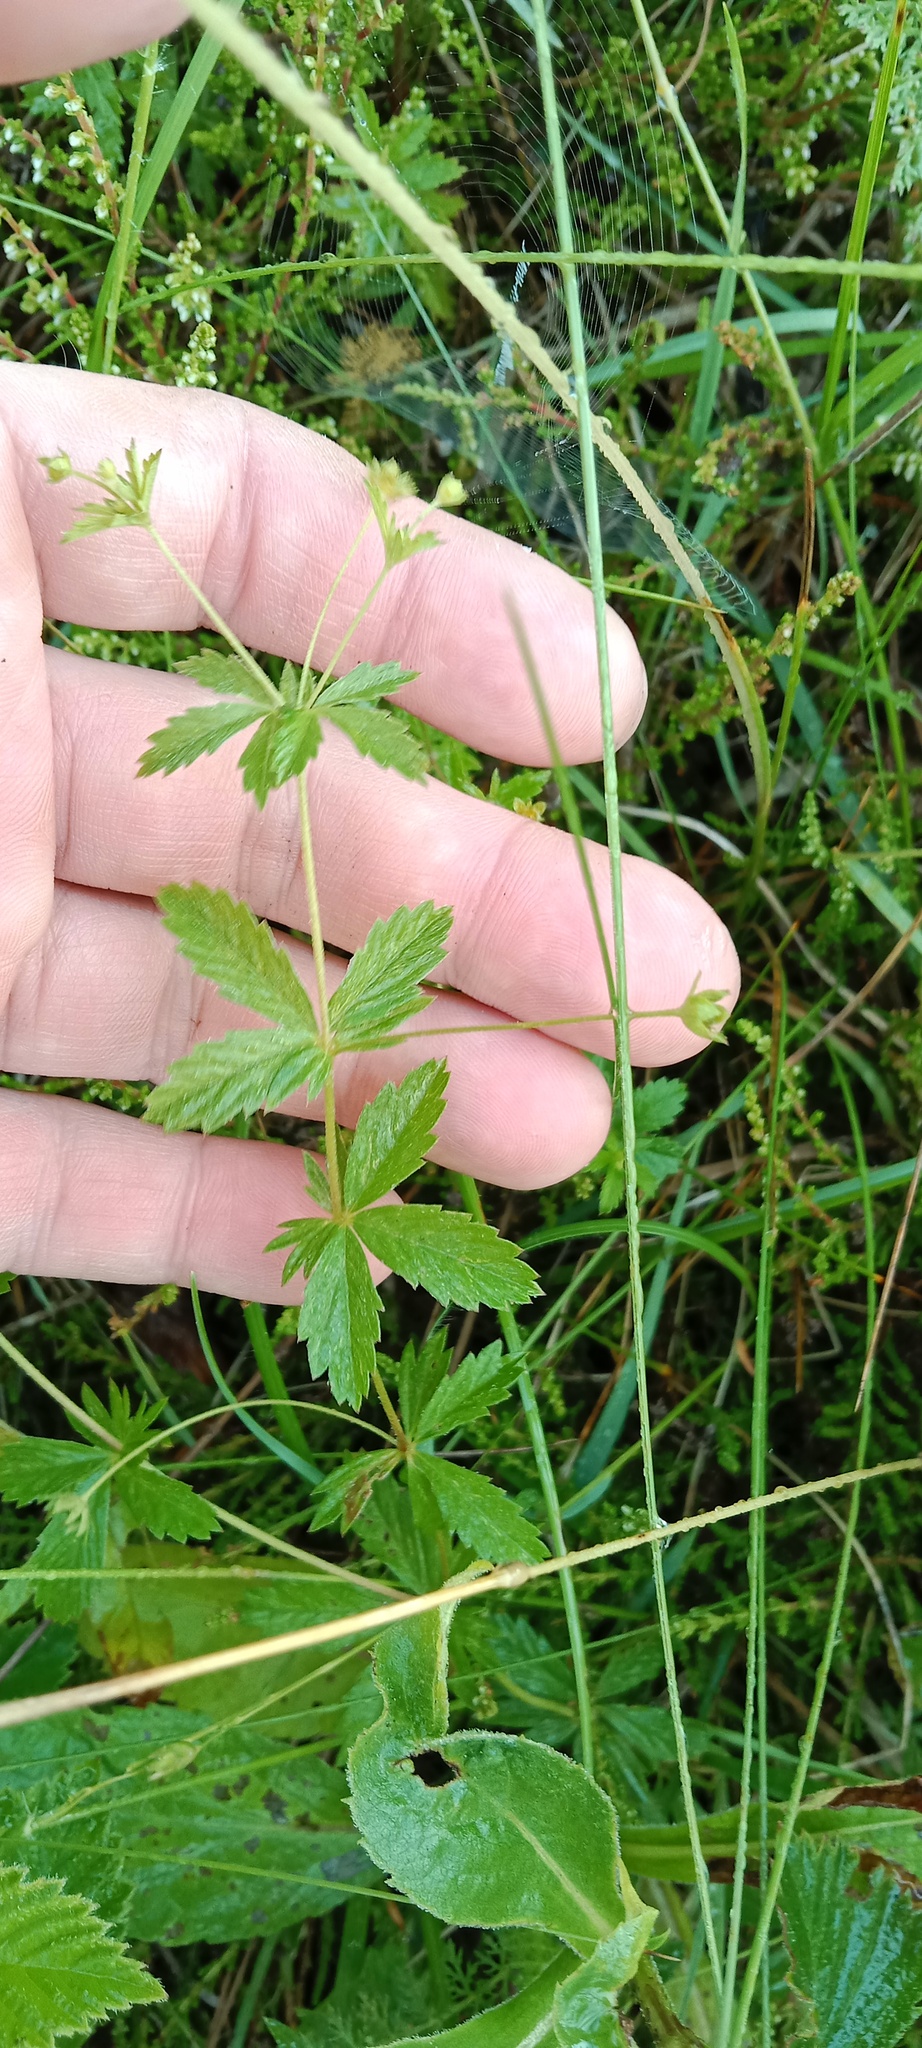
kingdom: Plantae
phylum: Tracheophyta
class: Magnoliopsida
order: Rosales
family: Rosaceae
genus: Potentilla
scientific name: Potentilla erecta
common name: Tormentil
